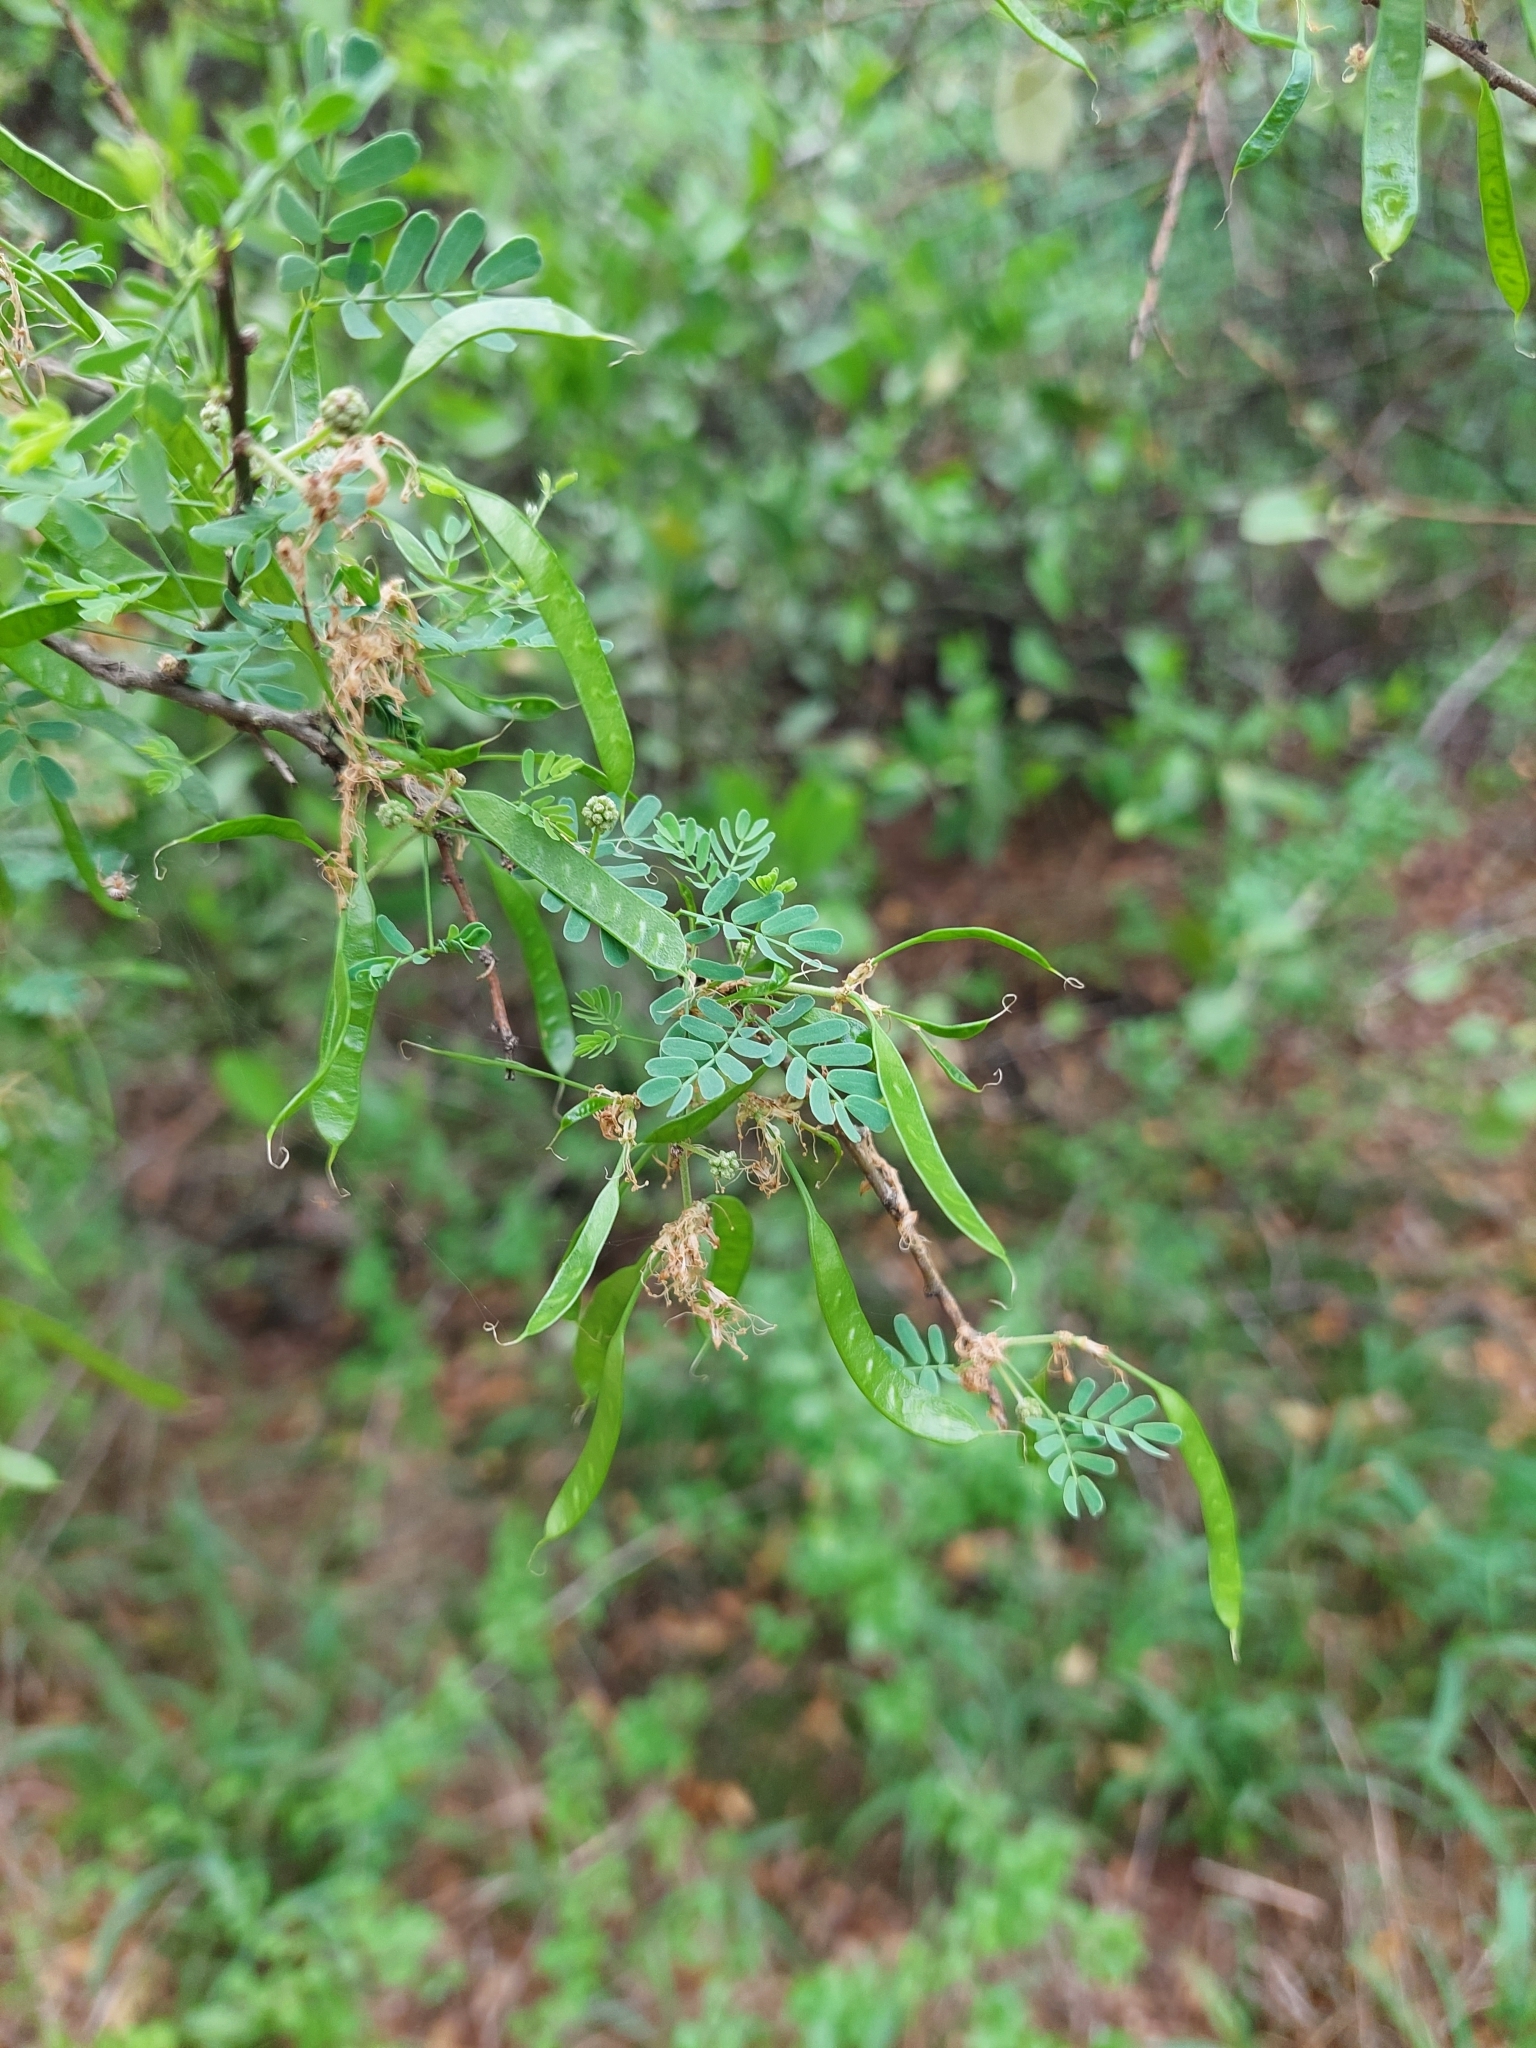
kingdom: Plantae
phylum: Tracheophyta
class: Magnoliopsida
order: Fabales
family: Fabaceae
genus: Mimosa
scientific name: Mimosa detinens
